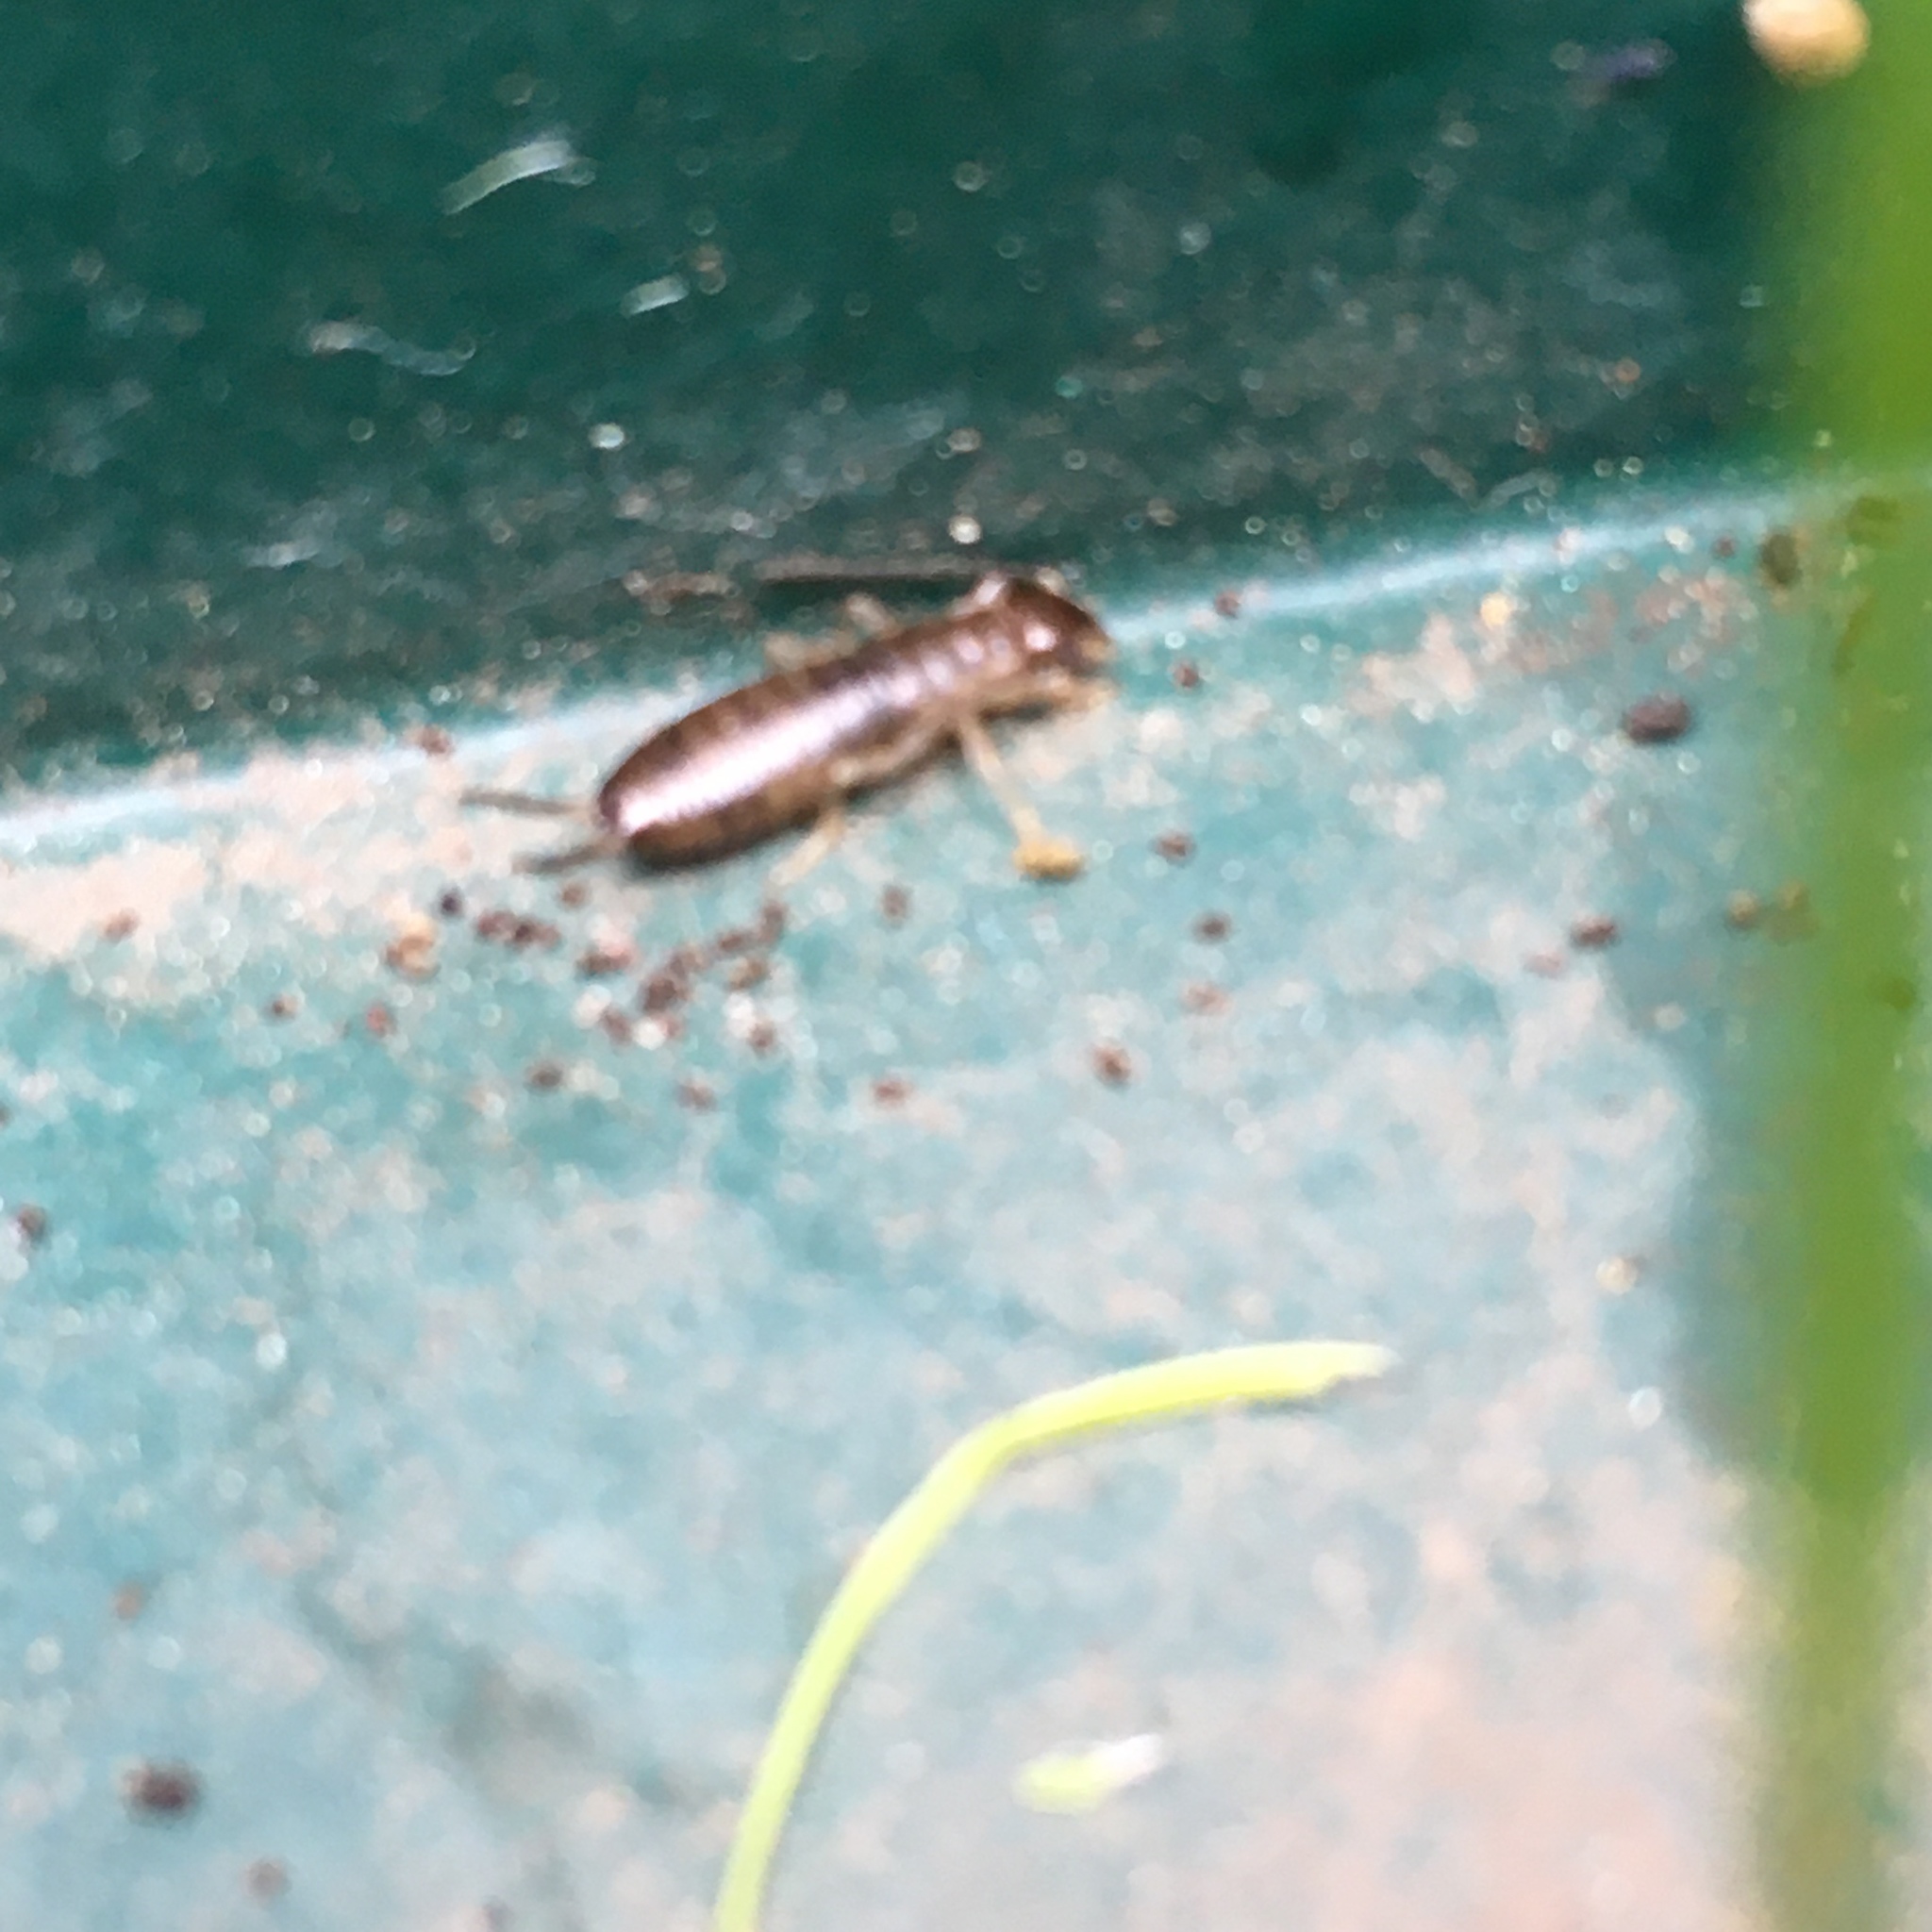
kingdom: Animalia
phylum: Arthropoda
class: Insecta
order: Dermaptera
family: Forficulidae
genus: Forficula
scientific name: Forficula
